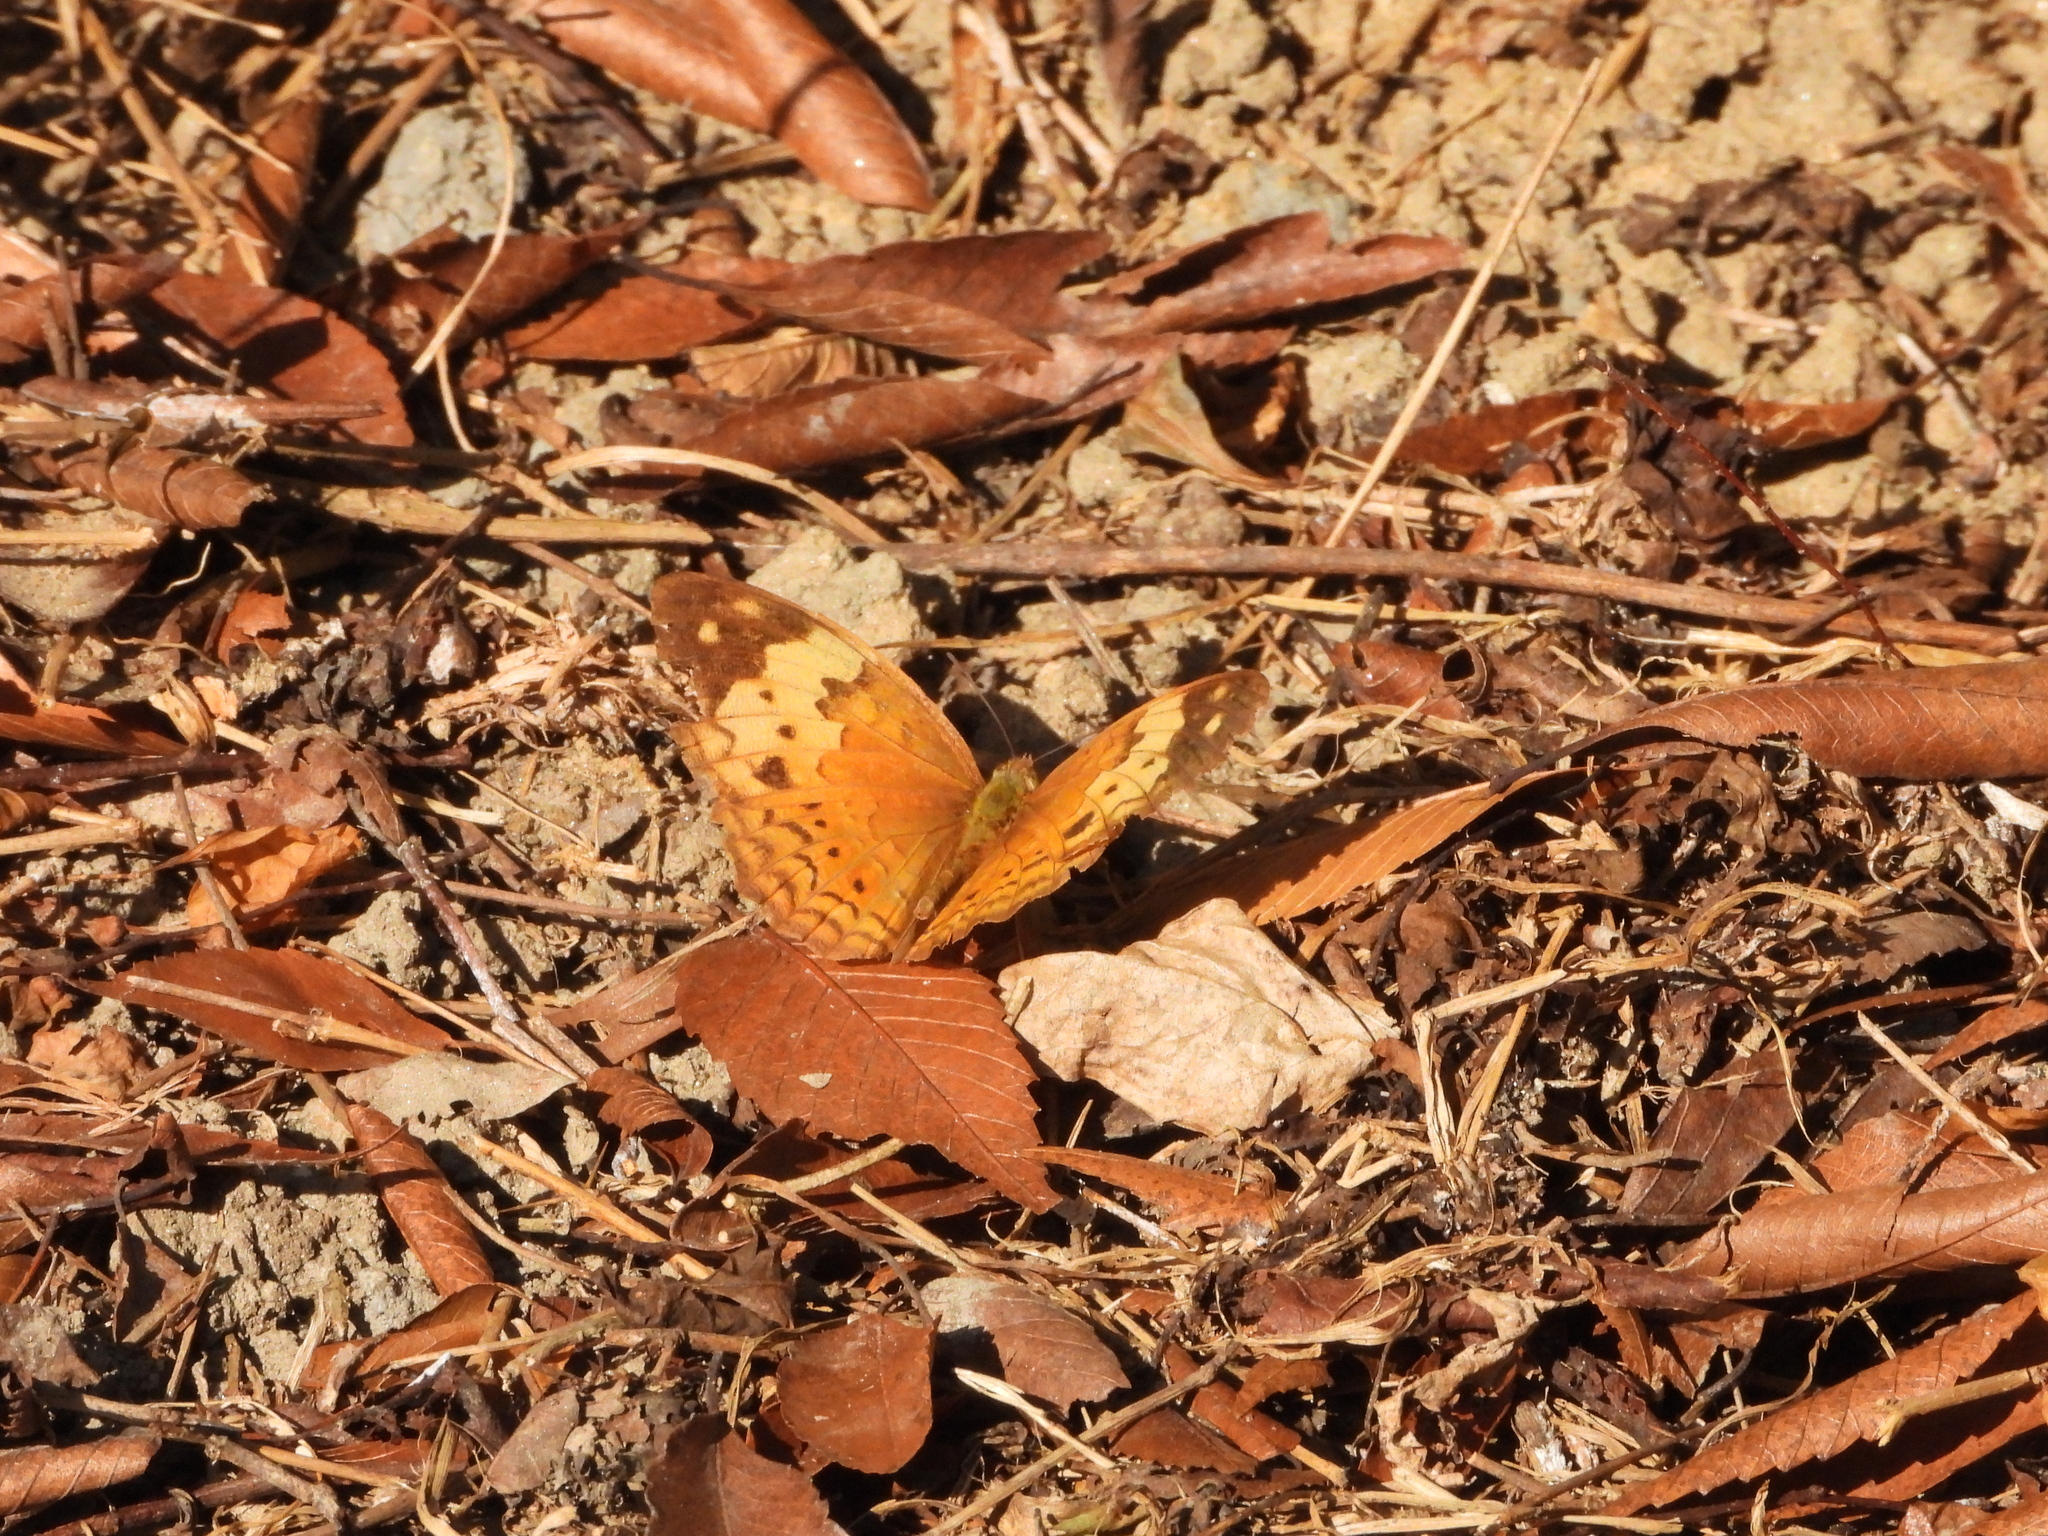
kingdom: Animalia
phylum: Arthropoda
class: Insecta
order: Lepidoptera
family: Nymphalidae
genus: Cupha
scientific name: Cupha erymanthis
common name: Rustic
